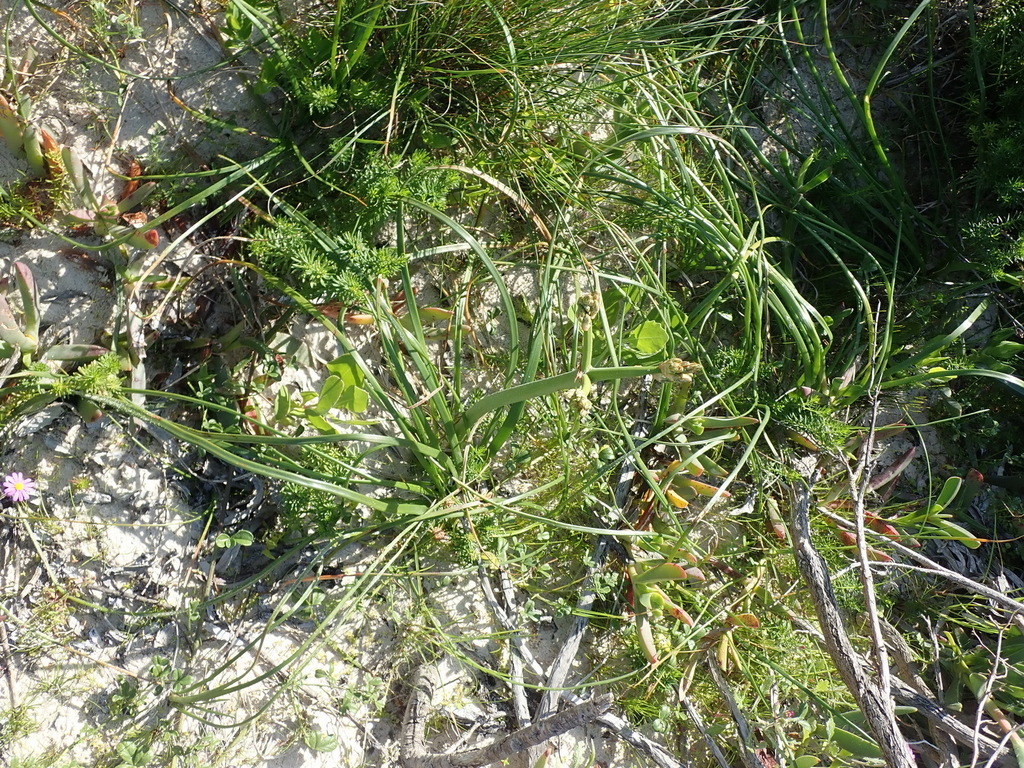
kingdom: Plantae
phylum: Tracheophyta
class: Liliopsida
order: Asparagales
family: Asphodelaceae
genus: Trachyandra
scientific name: Trachyandra divaricata
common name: Dune onionweed
